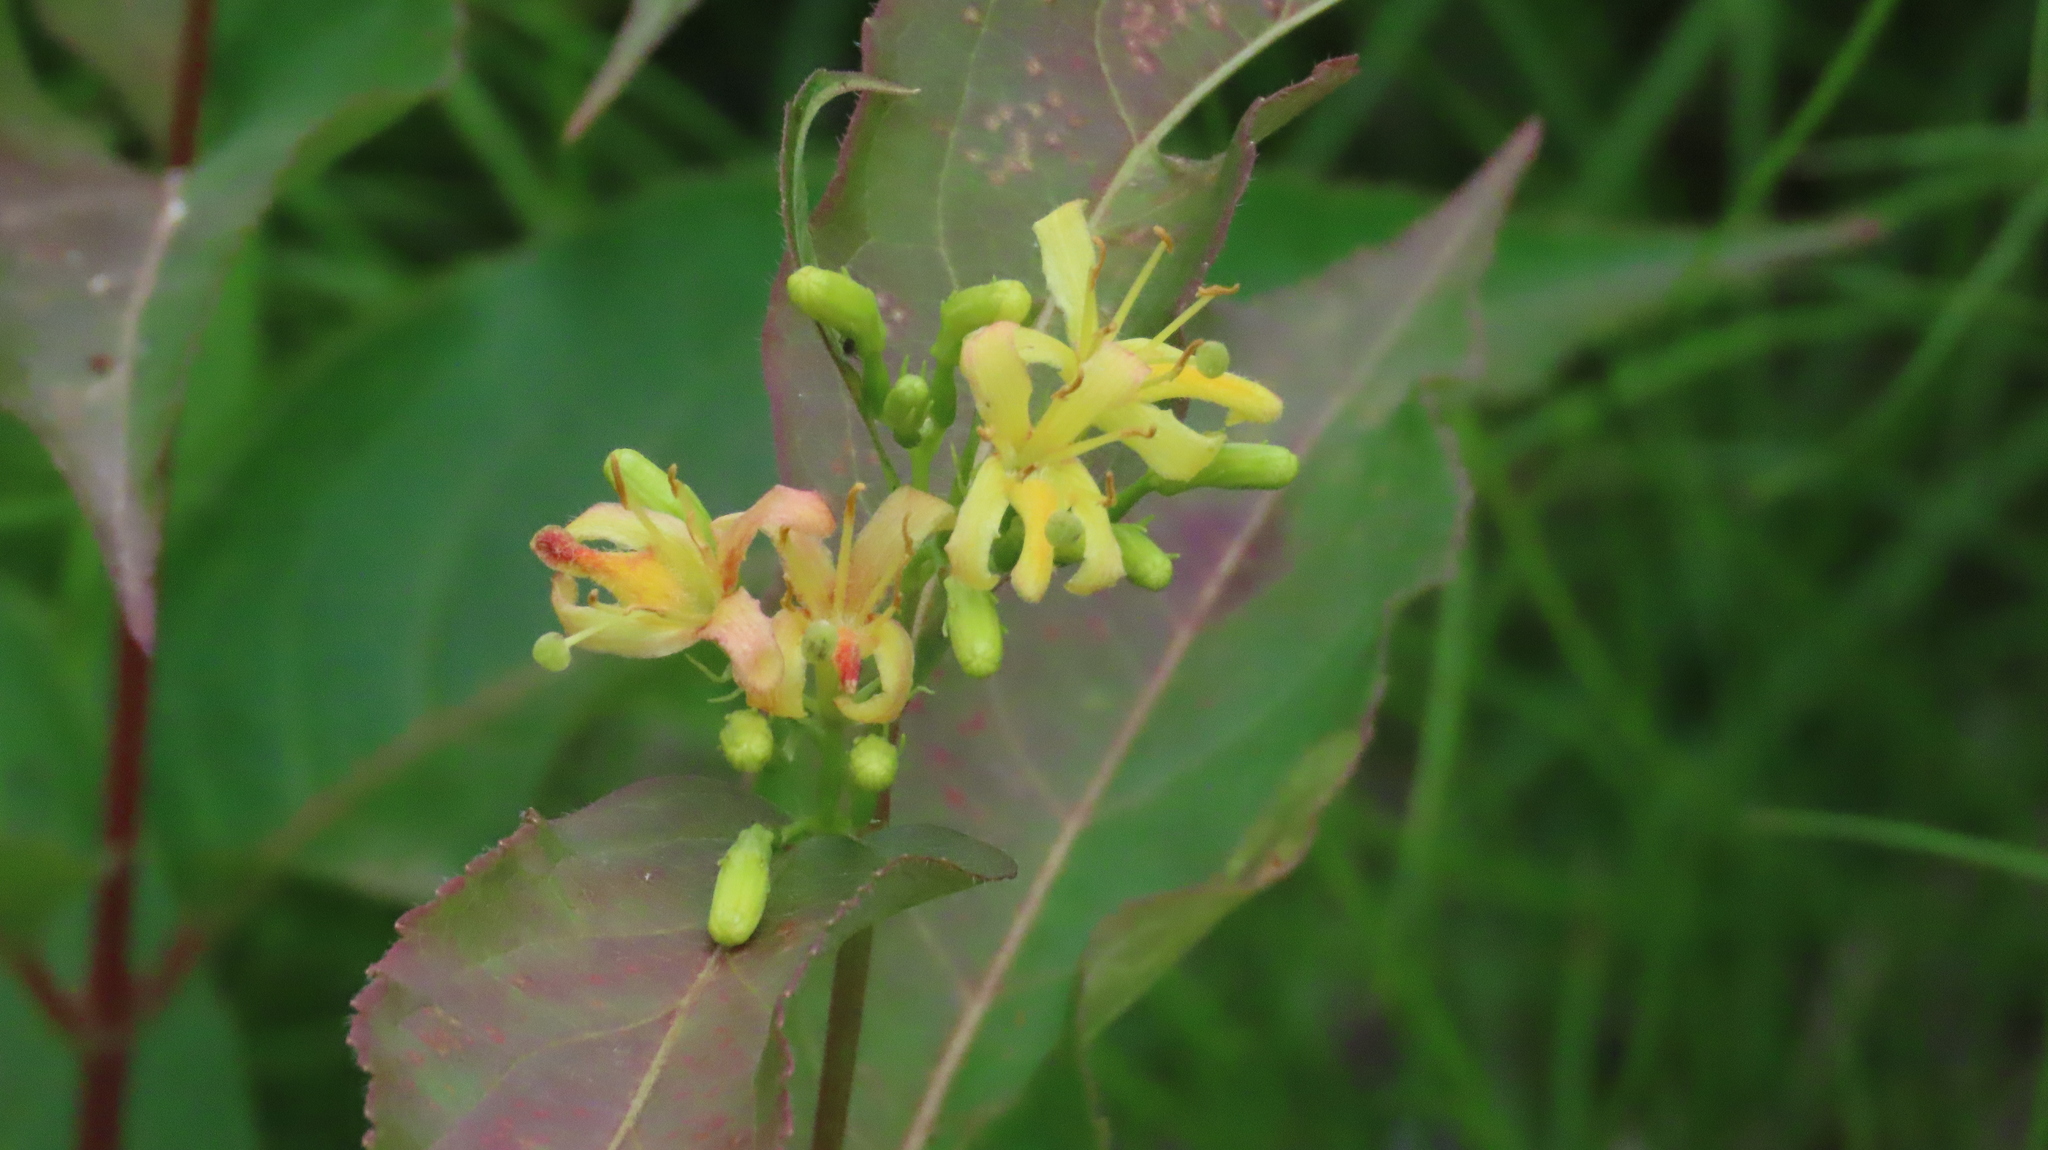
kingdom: Plantae
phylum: Tracheophyta
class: Magnoliopsida
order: Dipsacales
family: Caprifoliaceae
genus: Diervilla
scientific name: Diervilla lonicera
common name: Bush-honeysuckle
